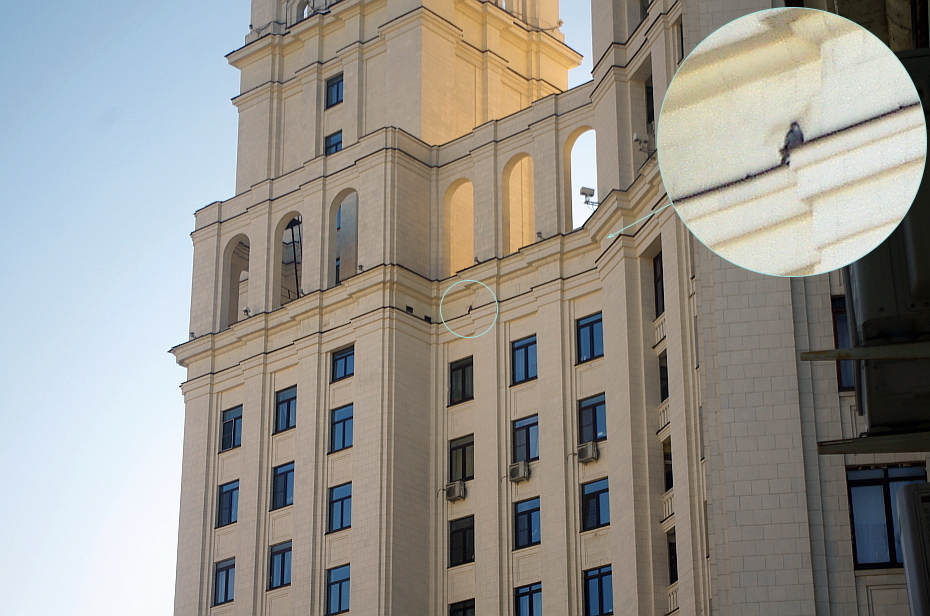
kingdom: Animalia
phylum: Chordata
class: Aves
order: Falconiformes
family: Falconidae
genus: Falco
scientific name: Falco peregrinus
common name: Peregrine falcon
